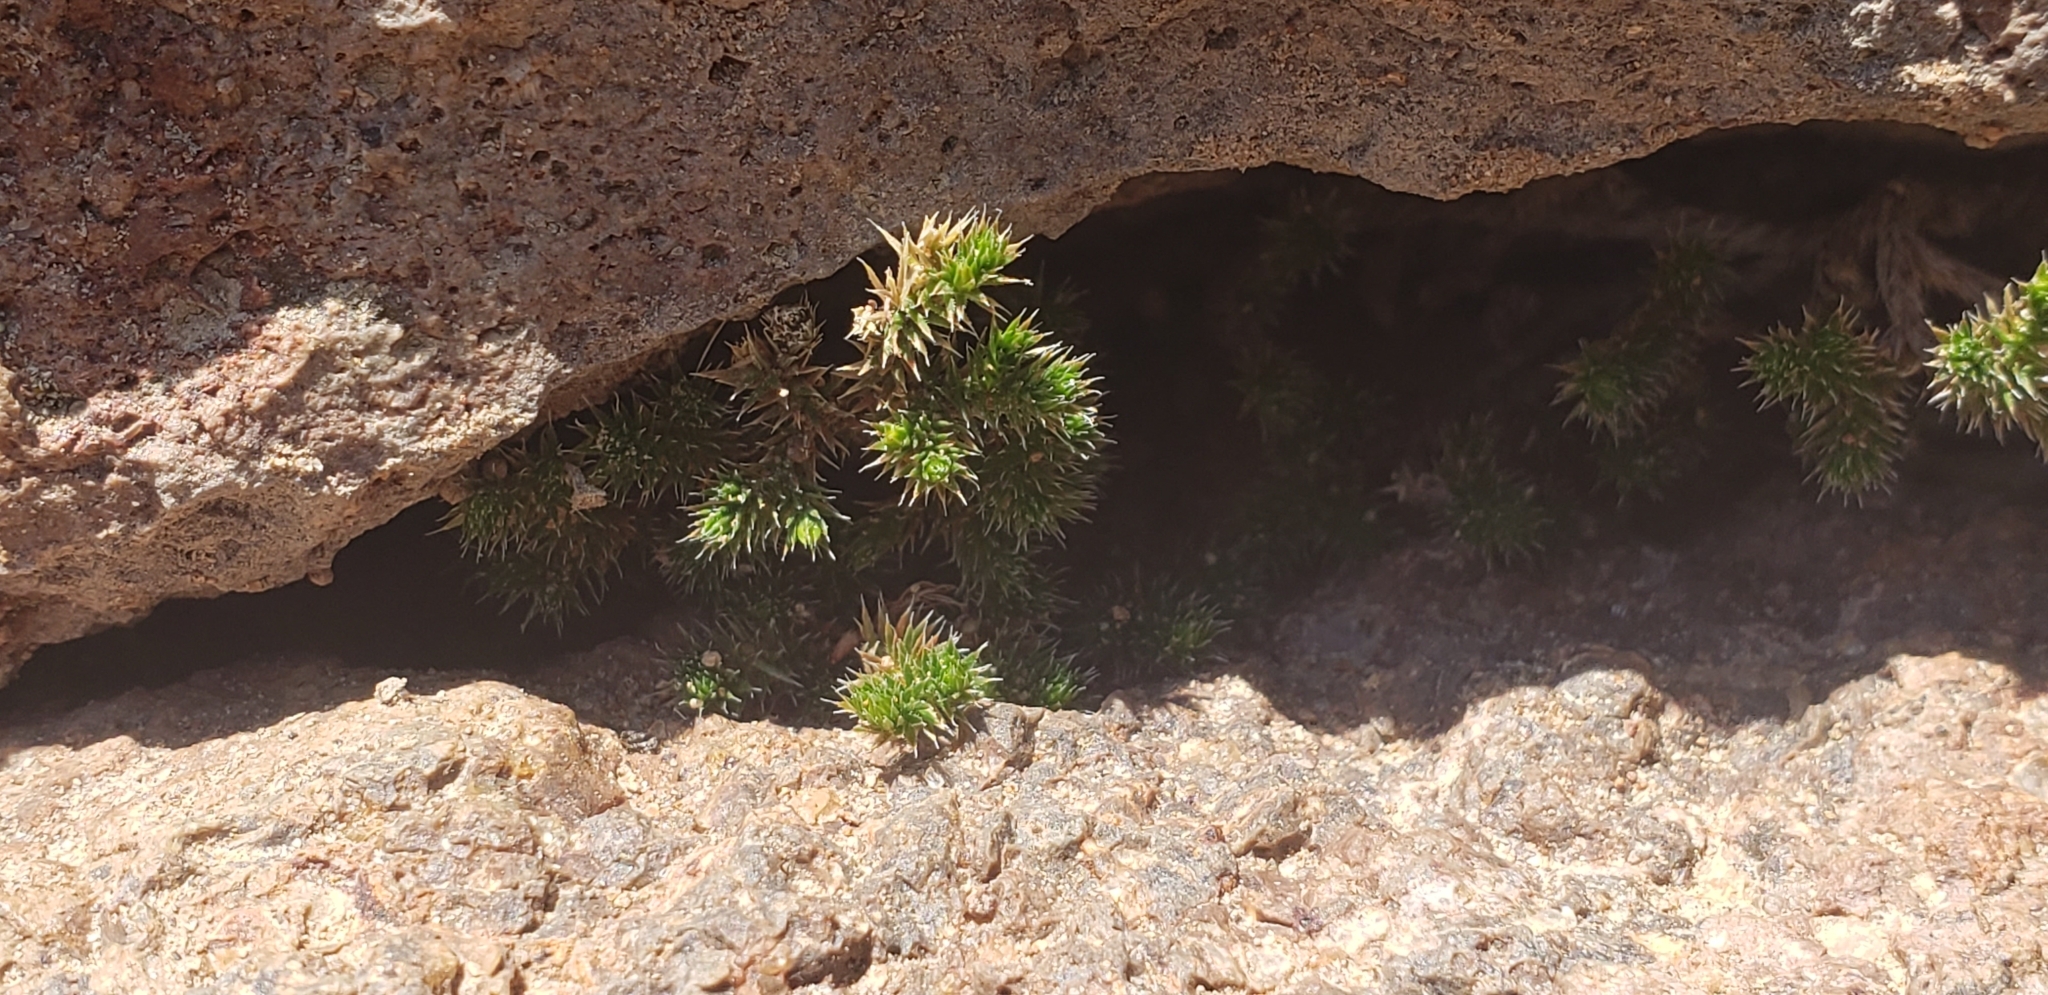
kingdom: Plantae
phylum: Tracheophyta
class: Lycopodiopsida
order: Selaginellales
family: Selaginellaceae
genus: Selaginella
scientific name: Selaginella rupincola
